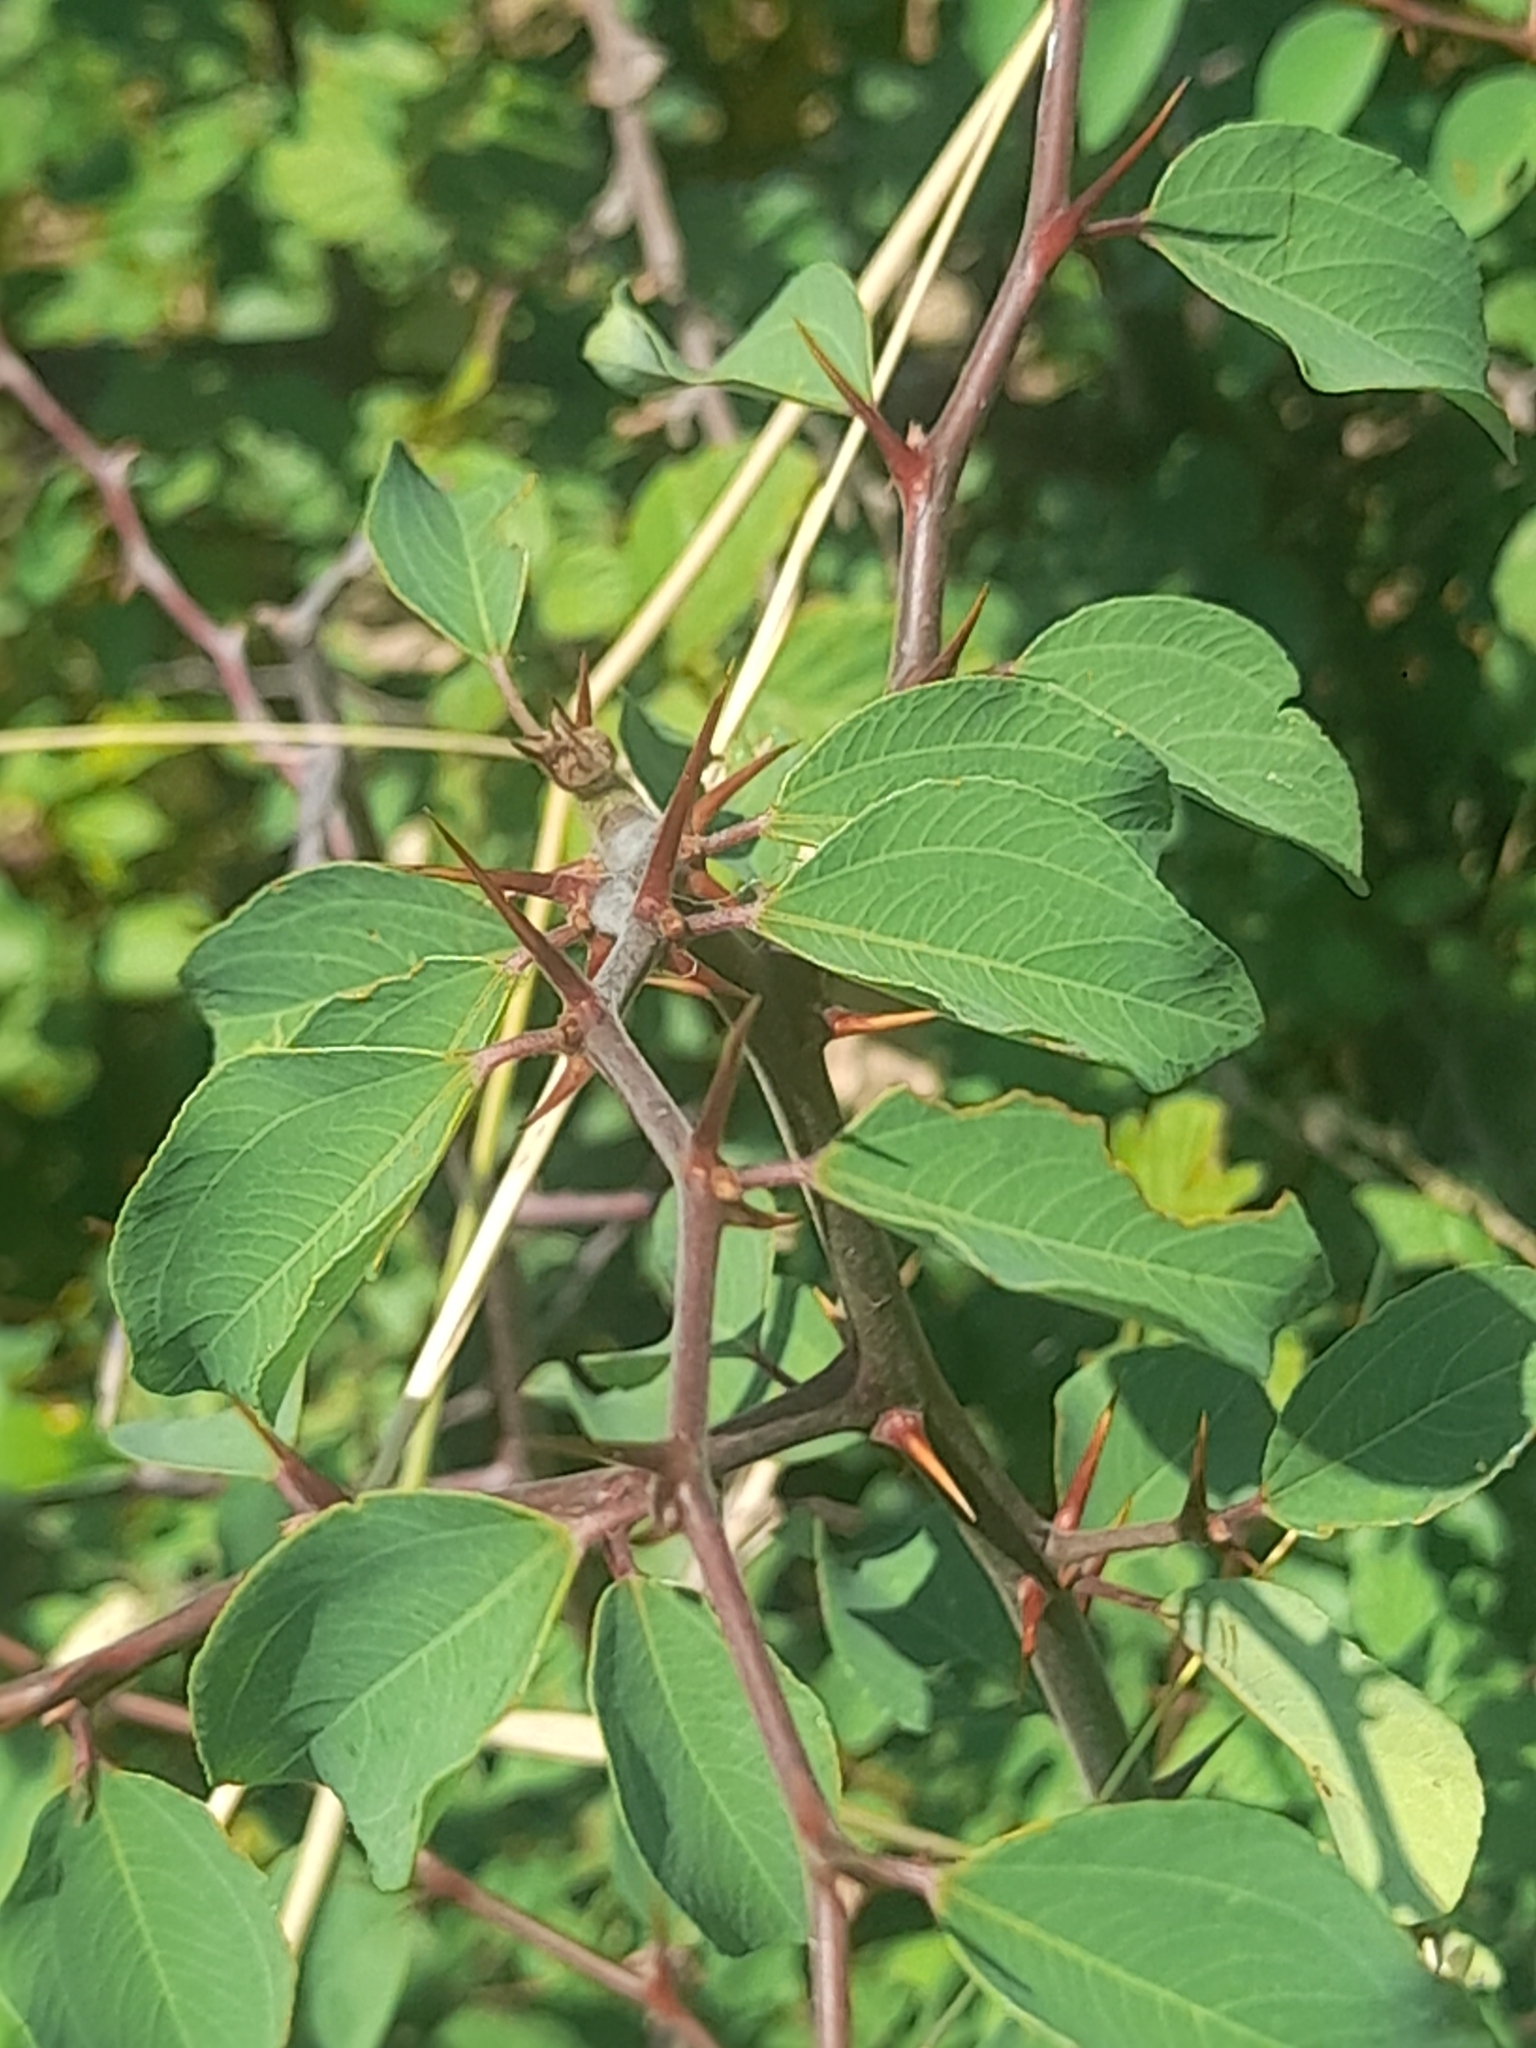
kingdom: Plantae
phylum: Tracheophyta
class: Magnoliopsida
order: Rosales
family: Rhamnaceae
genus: Paliurus
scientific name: Paliurus spina-christi
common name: Jeruselem thorn
